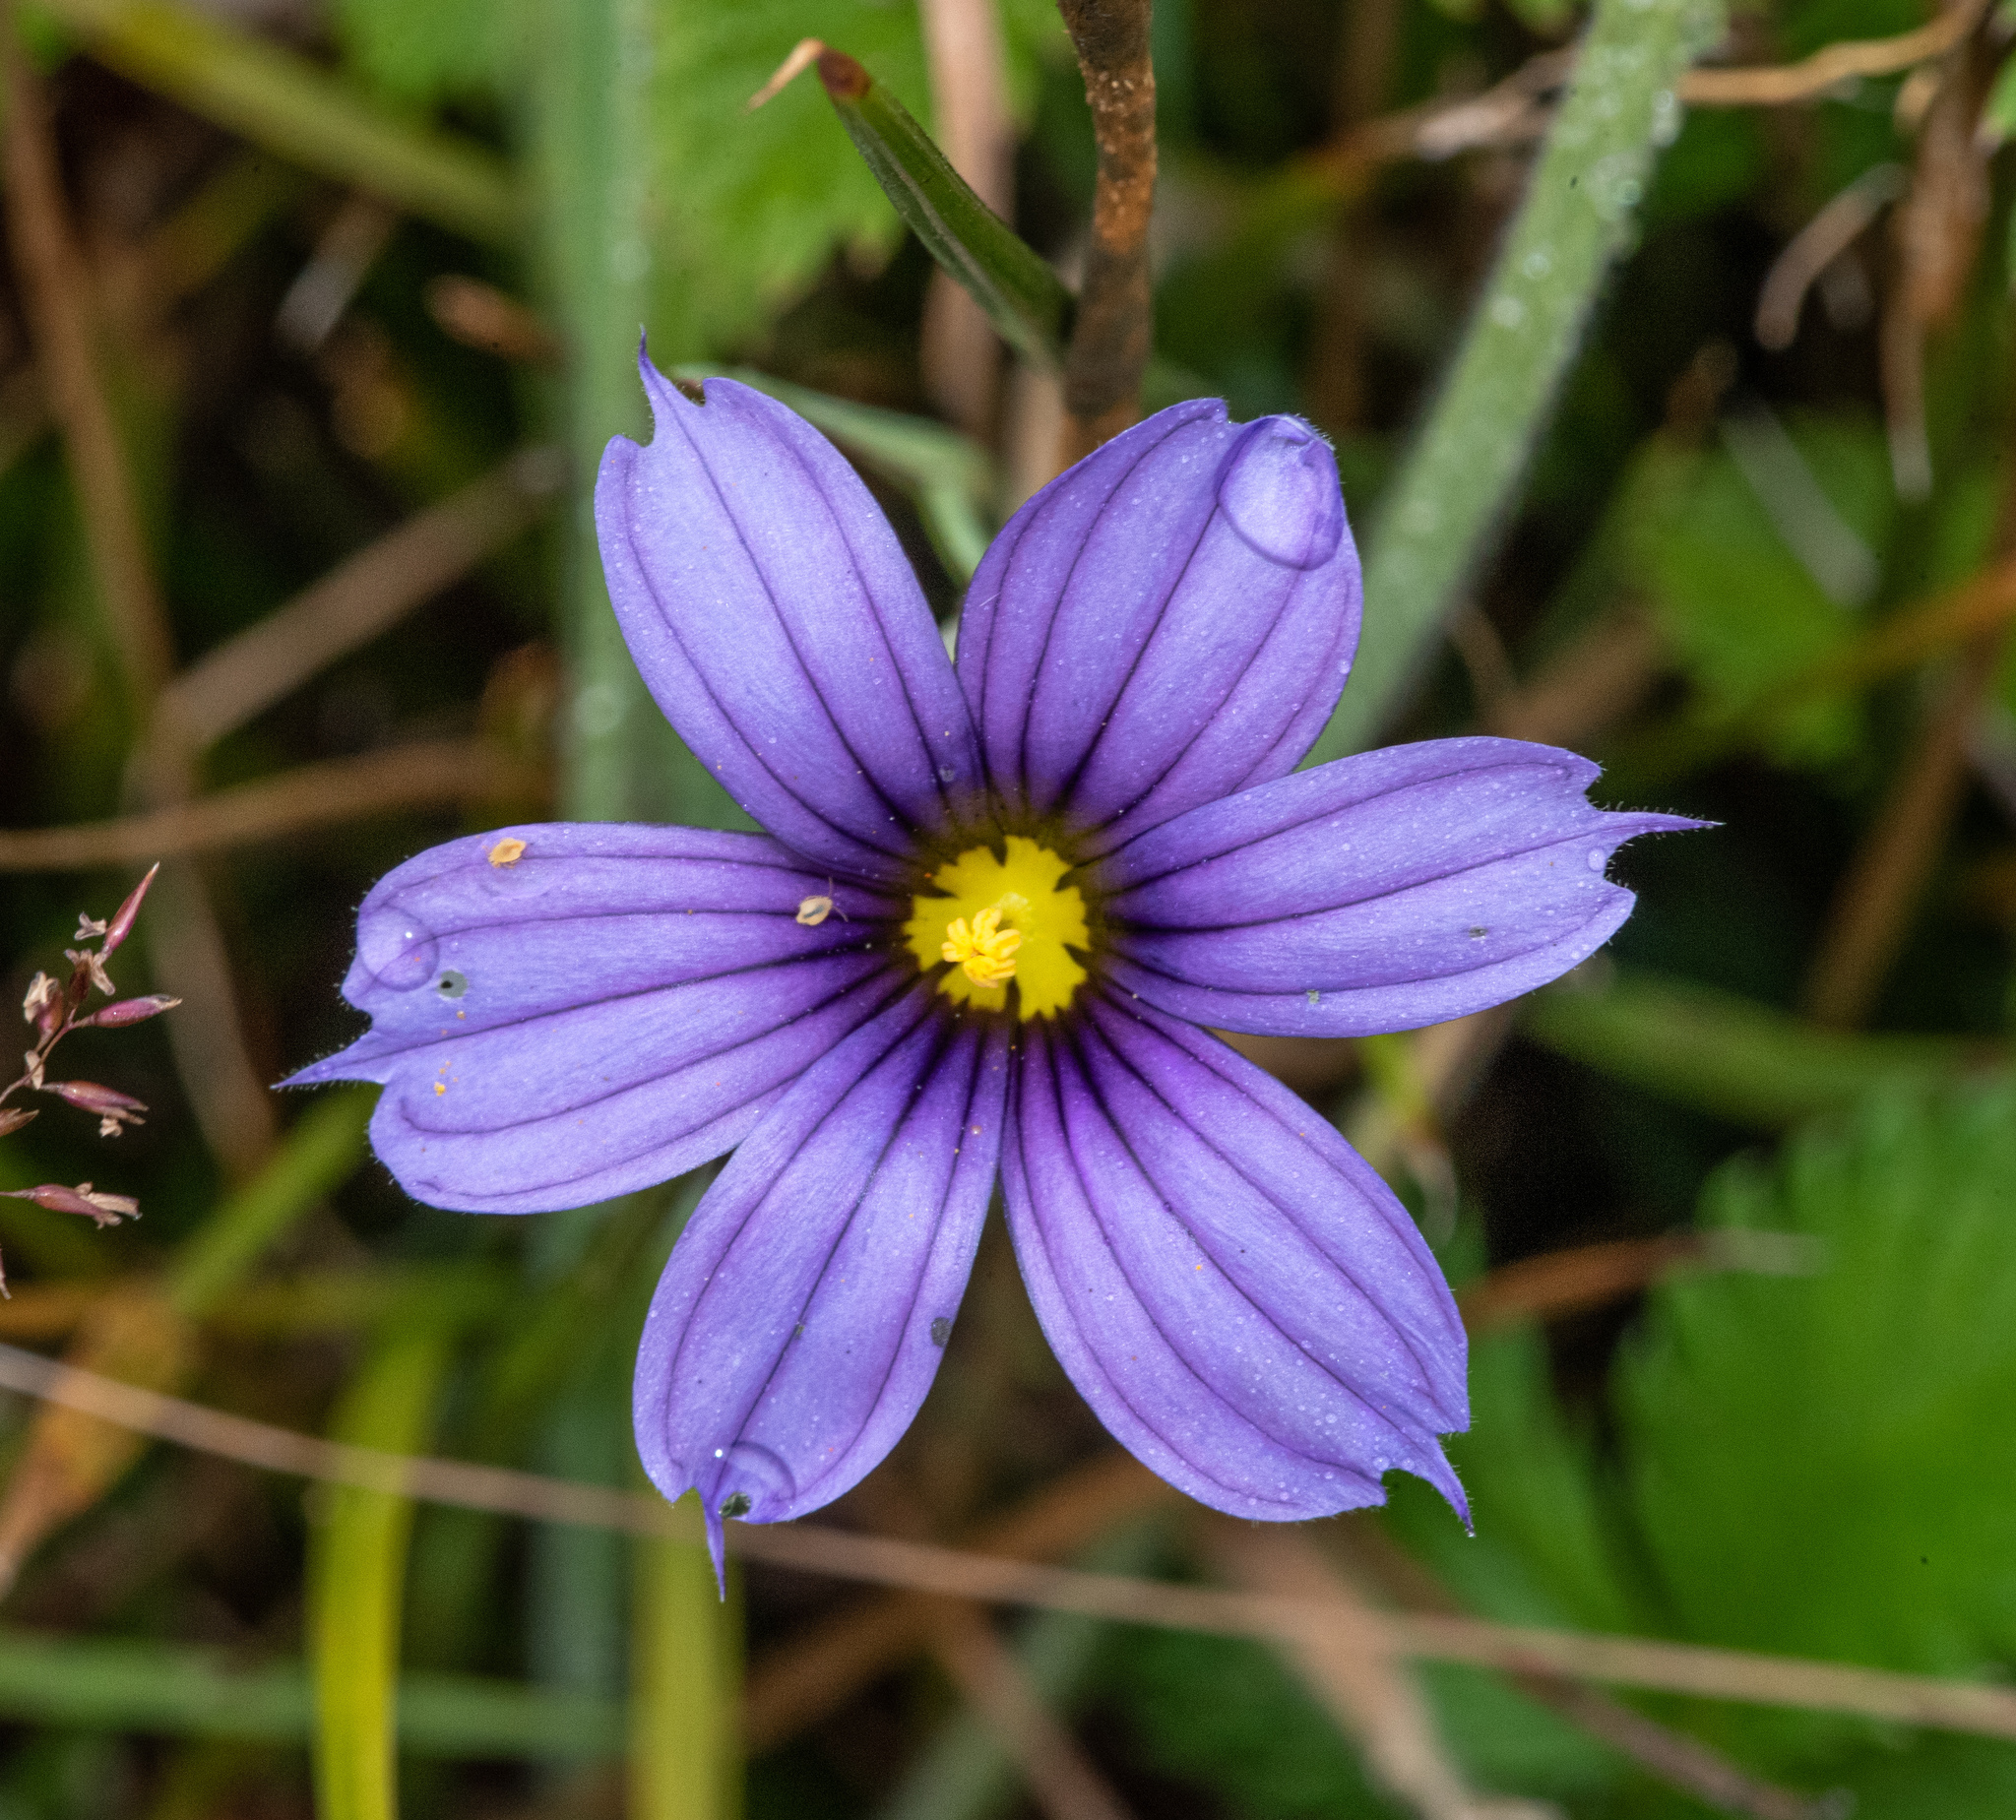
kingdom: Plantae
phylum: Tracheophyta
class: Liliopsida
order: Asparagales
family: Iridaceae
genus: Sisyrinchium
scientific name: Sisyrinchium bellum
